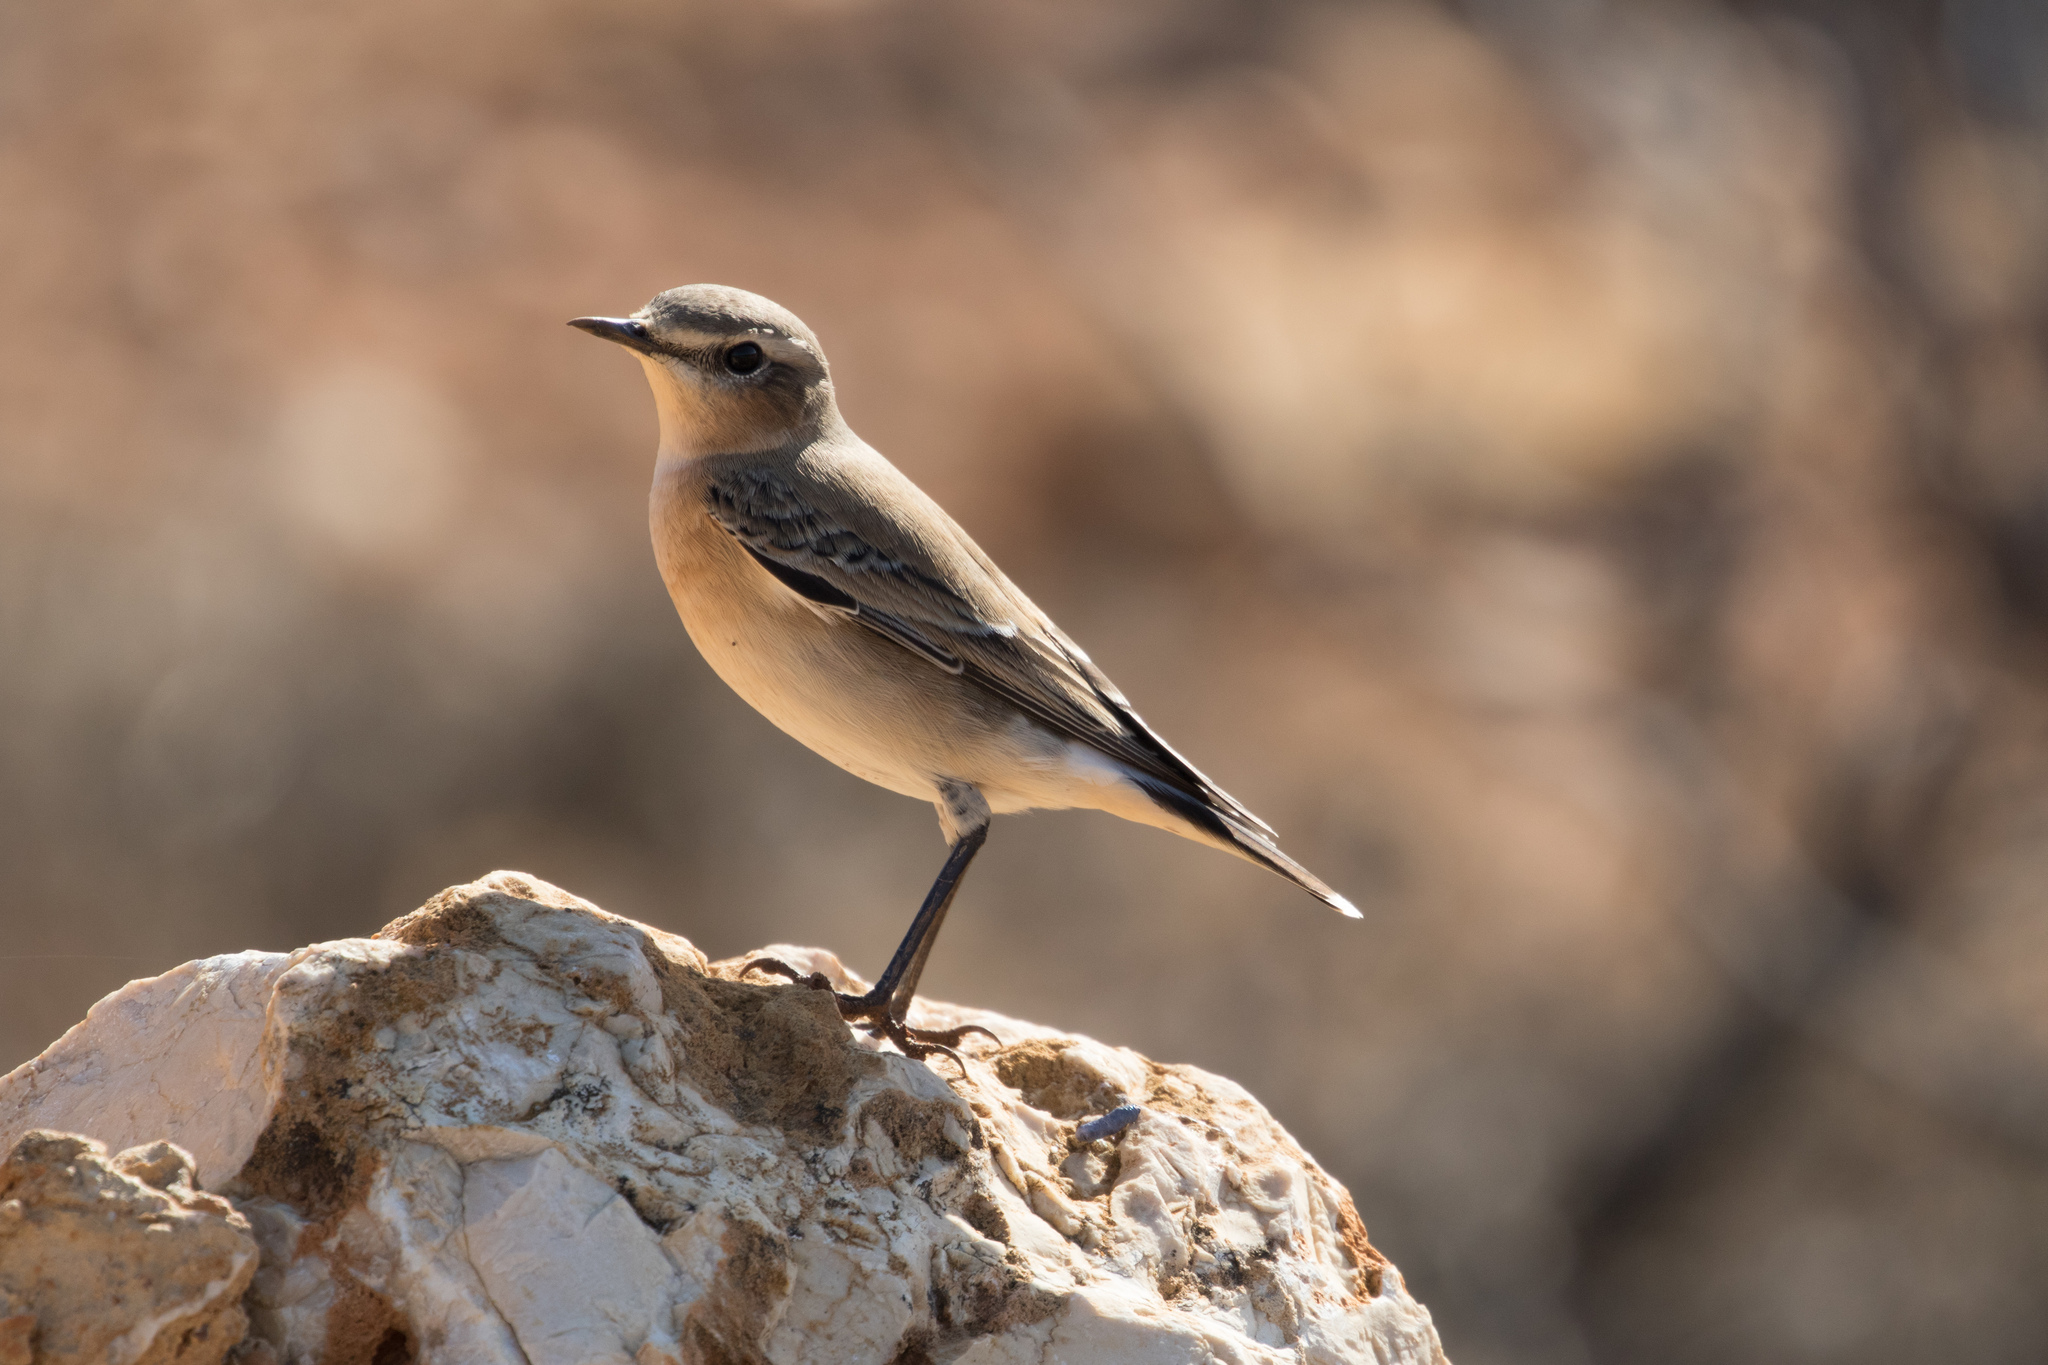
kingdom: Animalia
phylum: Chordata
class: Aves
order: Passeriformes
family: Muscicapidae
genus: Oenanthe
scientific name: Oenanthe oenanthe
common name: Northern wheatear
